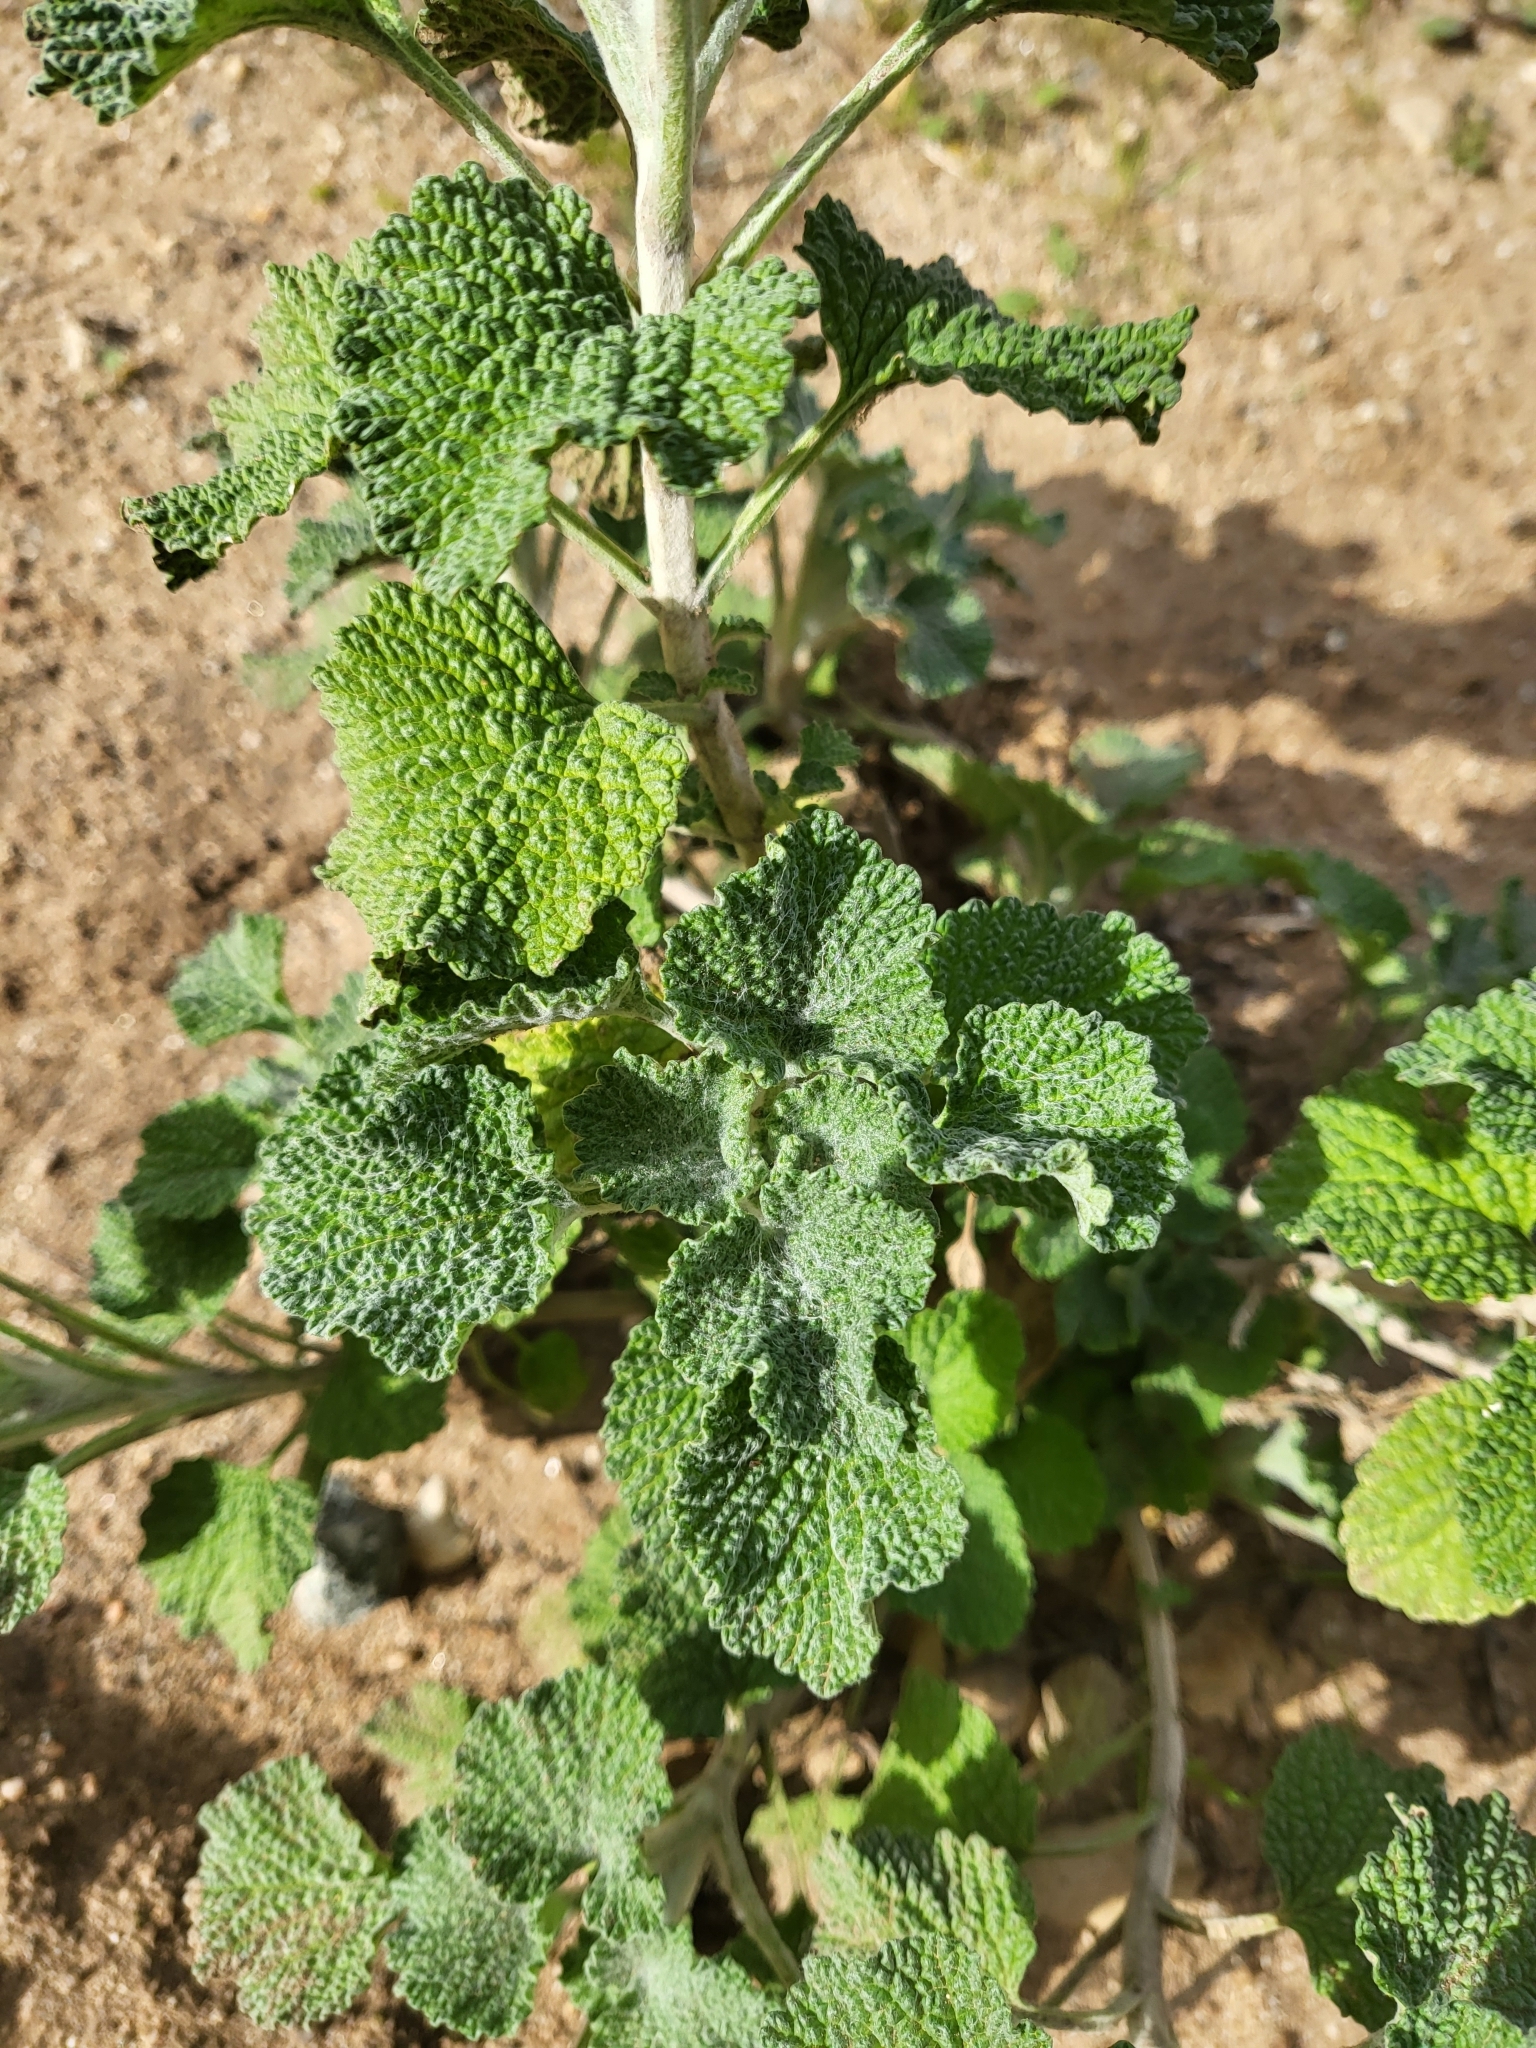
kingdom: Plantae
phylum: Tracheophyta
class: Magnoliopsida
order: Lamiales
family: Lamiaceae
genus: Marrubium
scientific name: Marrubium vulgare
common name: Horehound
